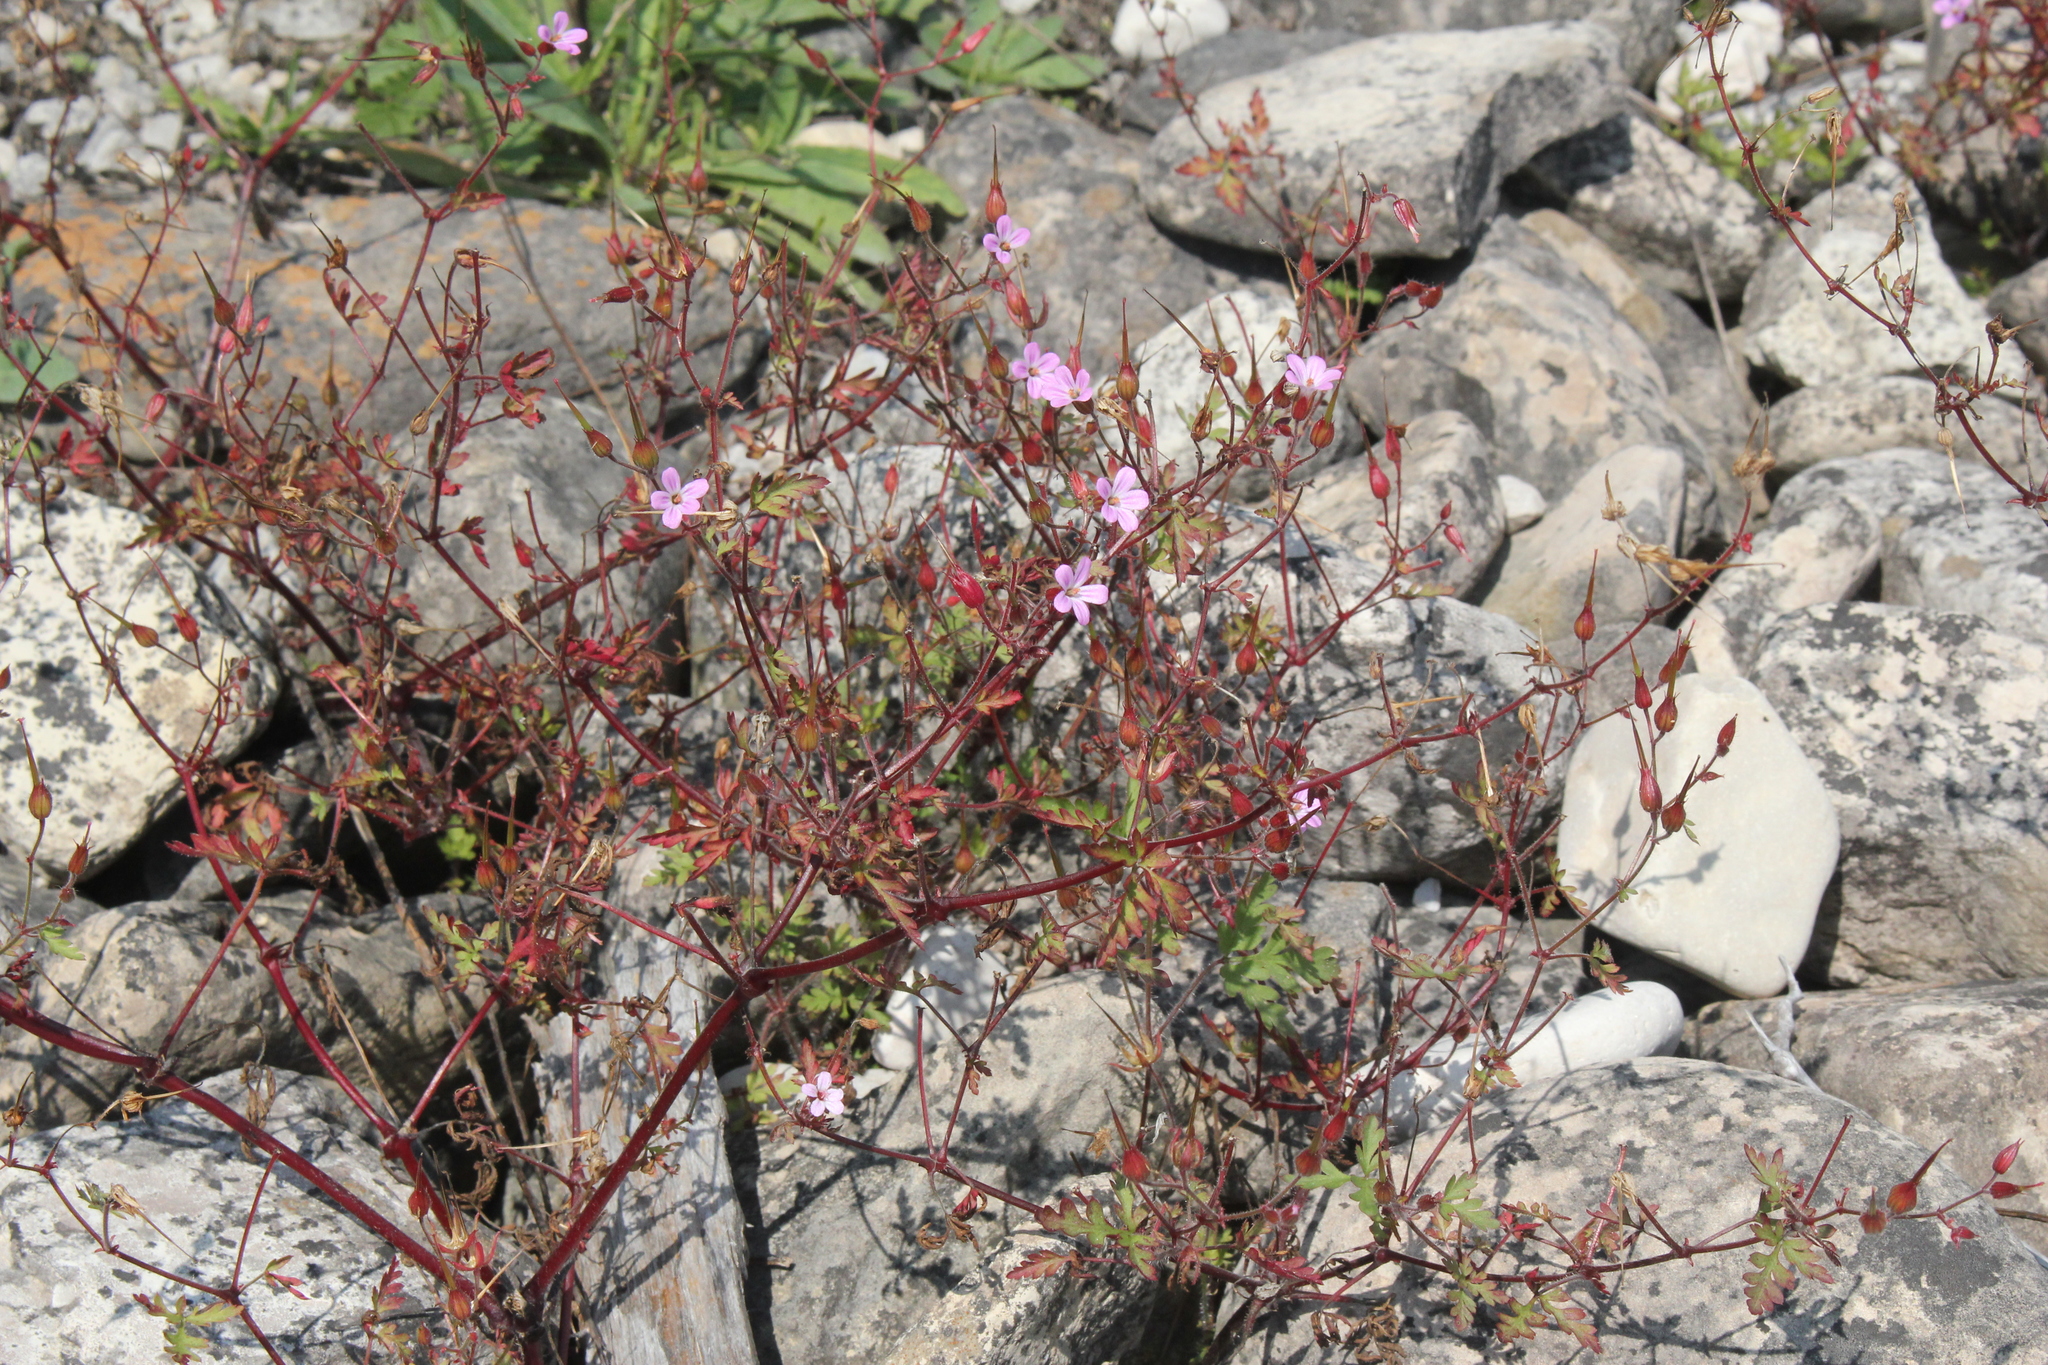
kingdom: Plantae
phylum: Tracheophyta
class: Magnoliopsida
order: Geraniales
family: Geraniaceae
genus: Geranium
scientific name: Geranium robertianum
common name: Herb-robert
